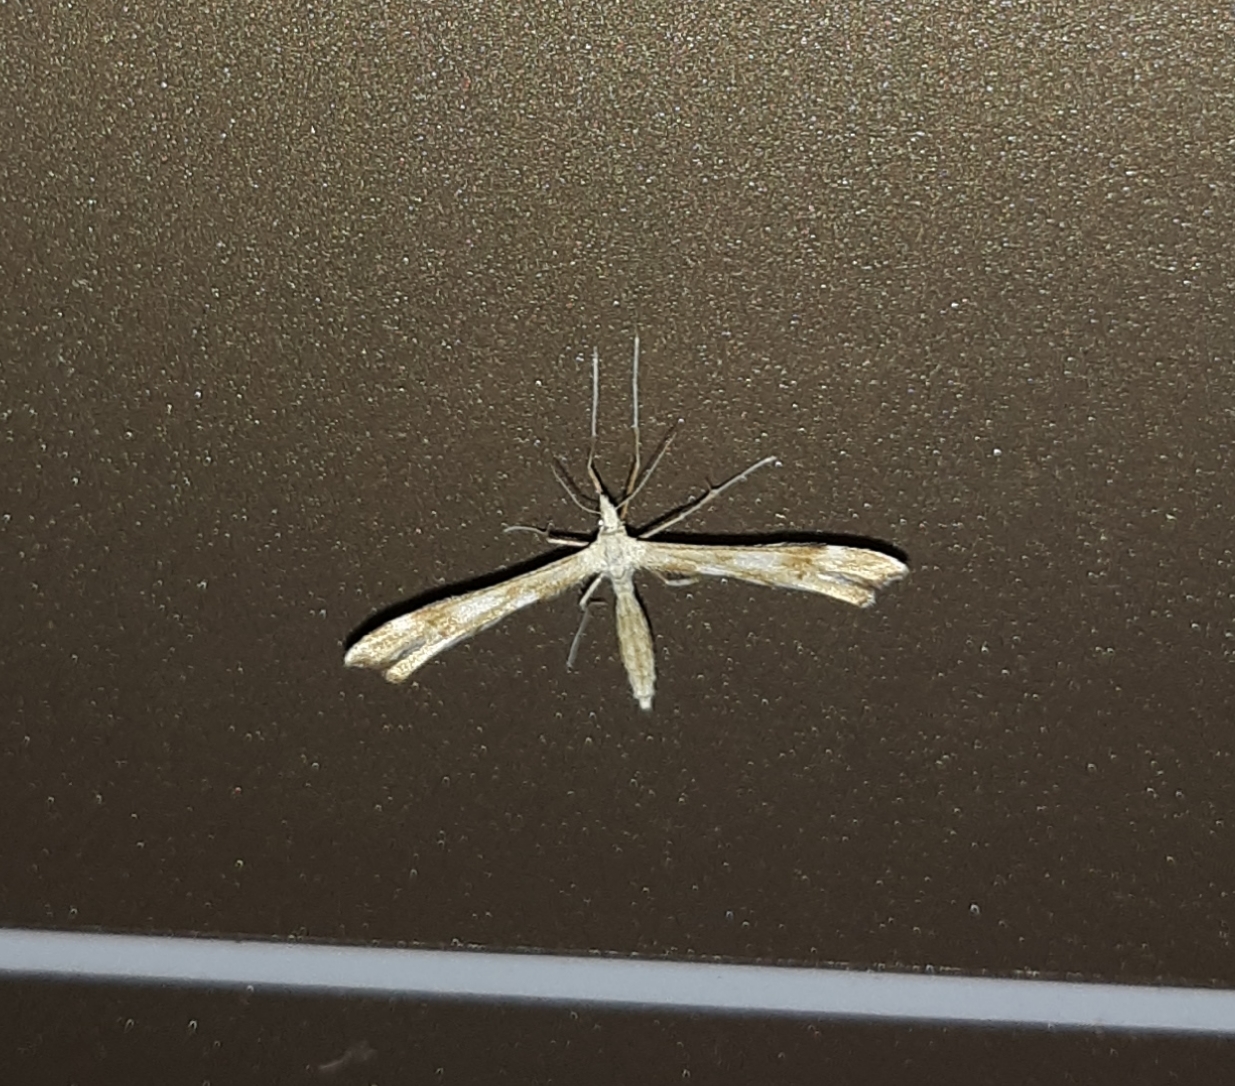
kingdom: Animalia
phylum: Arthropoda
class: Insecta
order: Lepidoptera
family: Pterophoridae
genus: Gillmeria
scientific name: Gillmeria pallidactyla
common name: Yarrow plume
